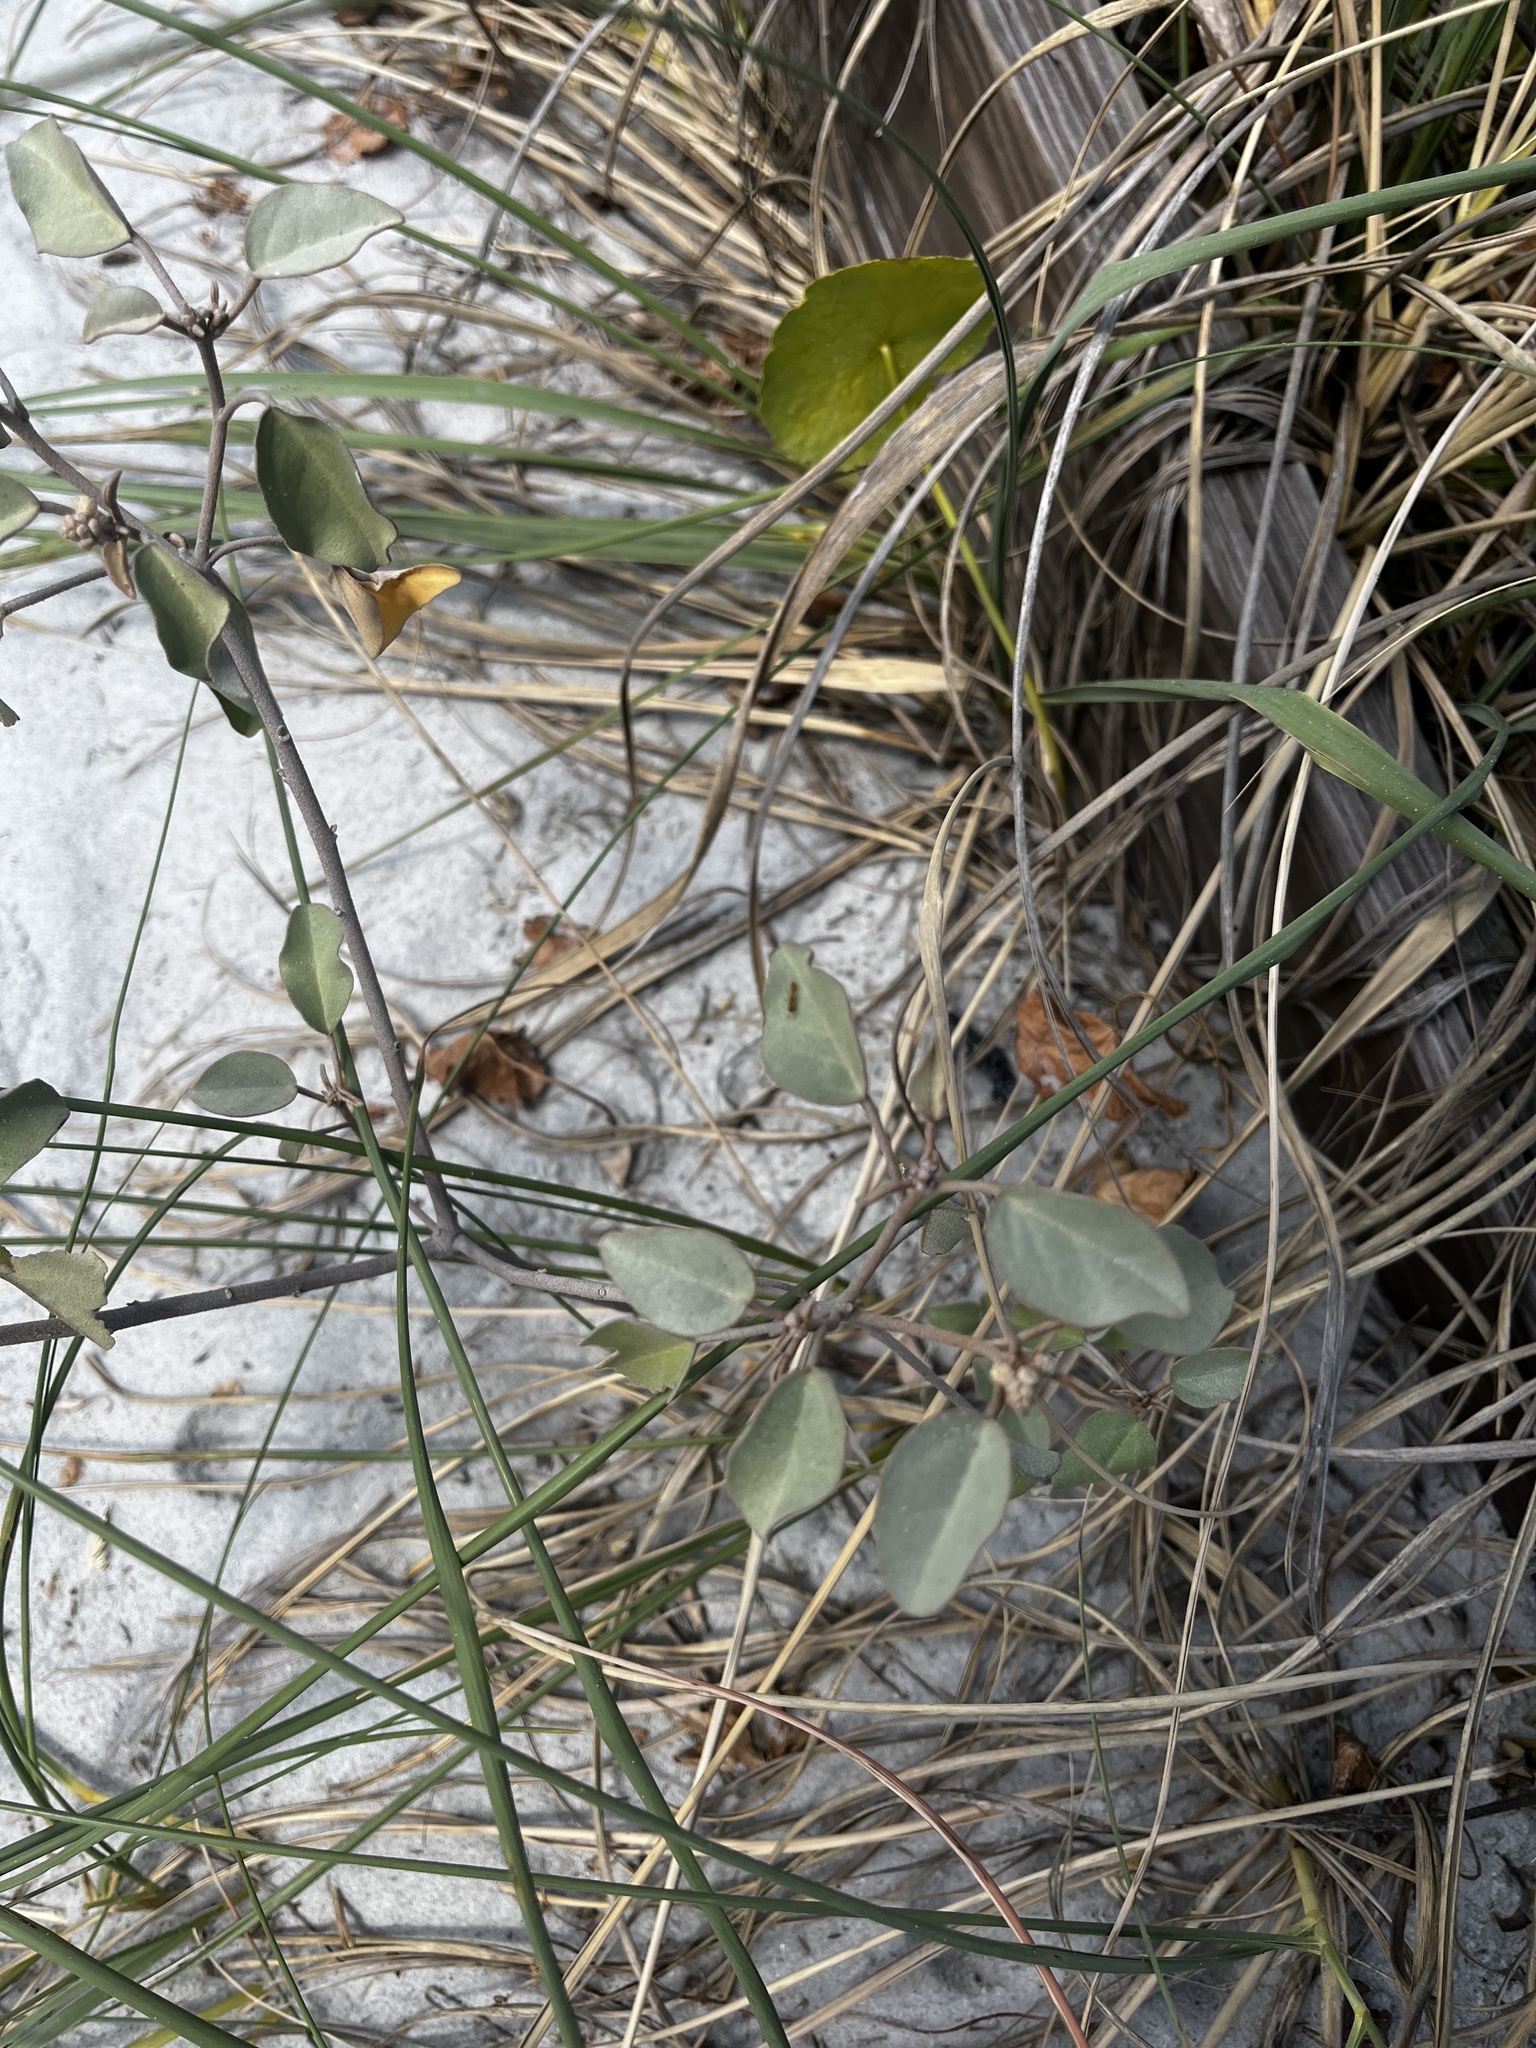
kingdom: Plantae
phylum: Tracheophyta
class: Magnoliopsida
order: Malpighiales
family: Euphorbiaceae
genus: Croton
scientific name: Croton punctatus
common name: Beach-tea
